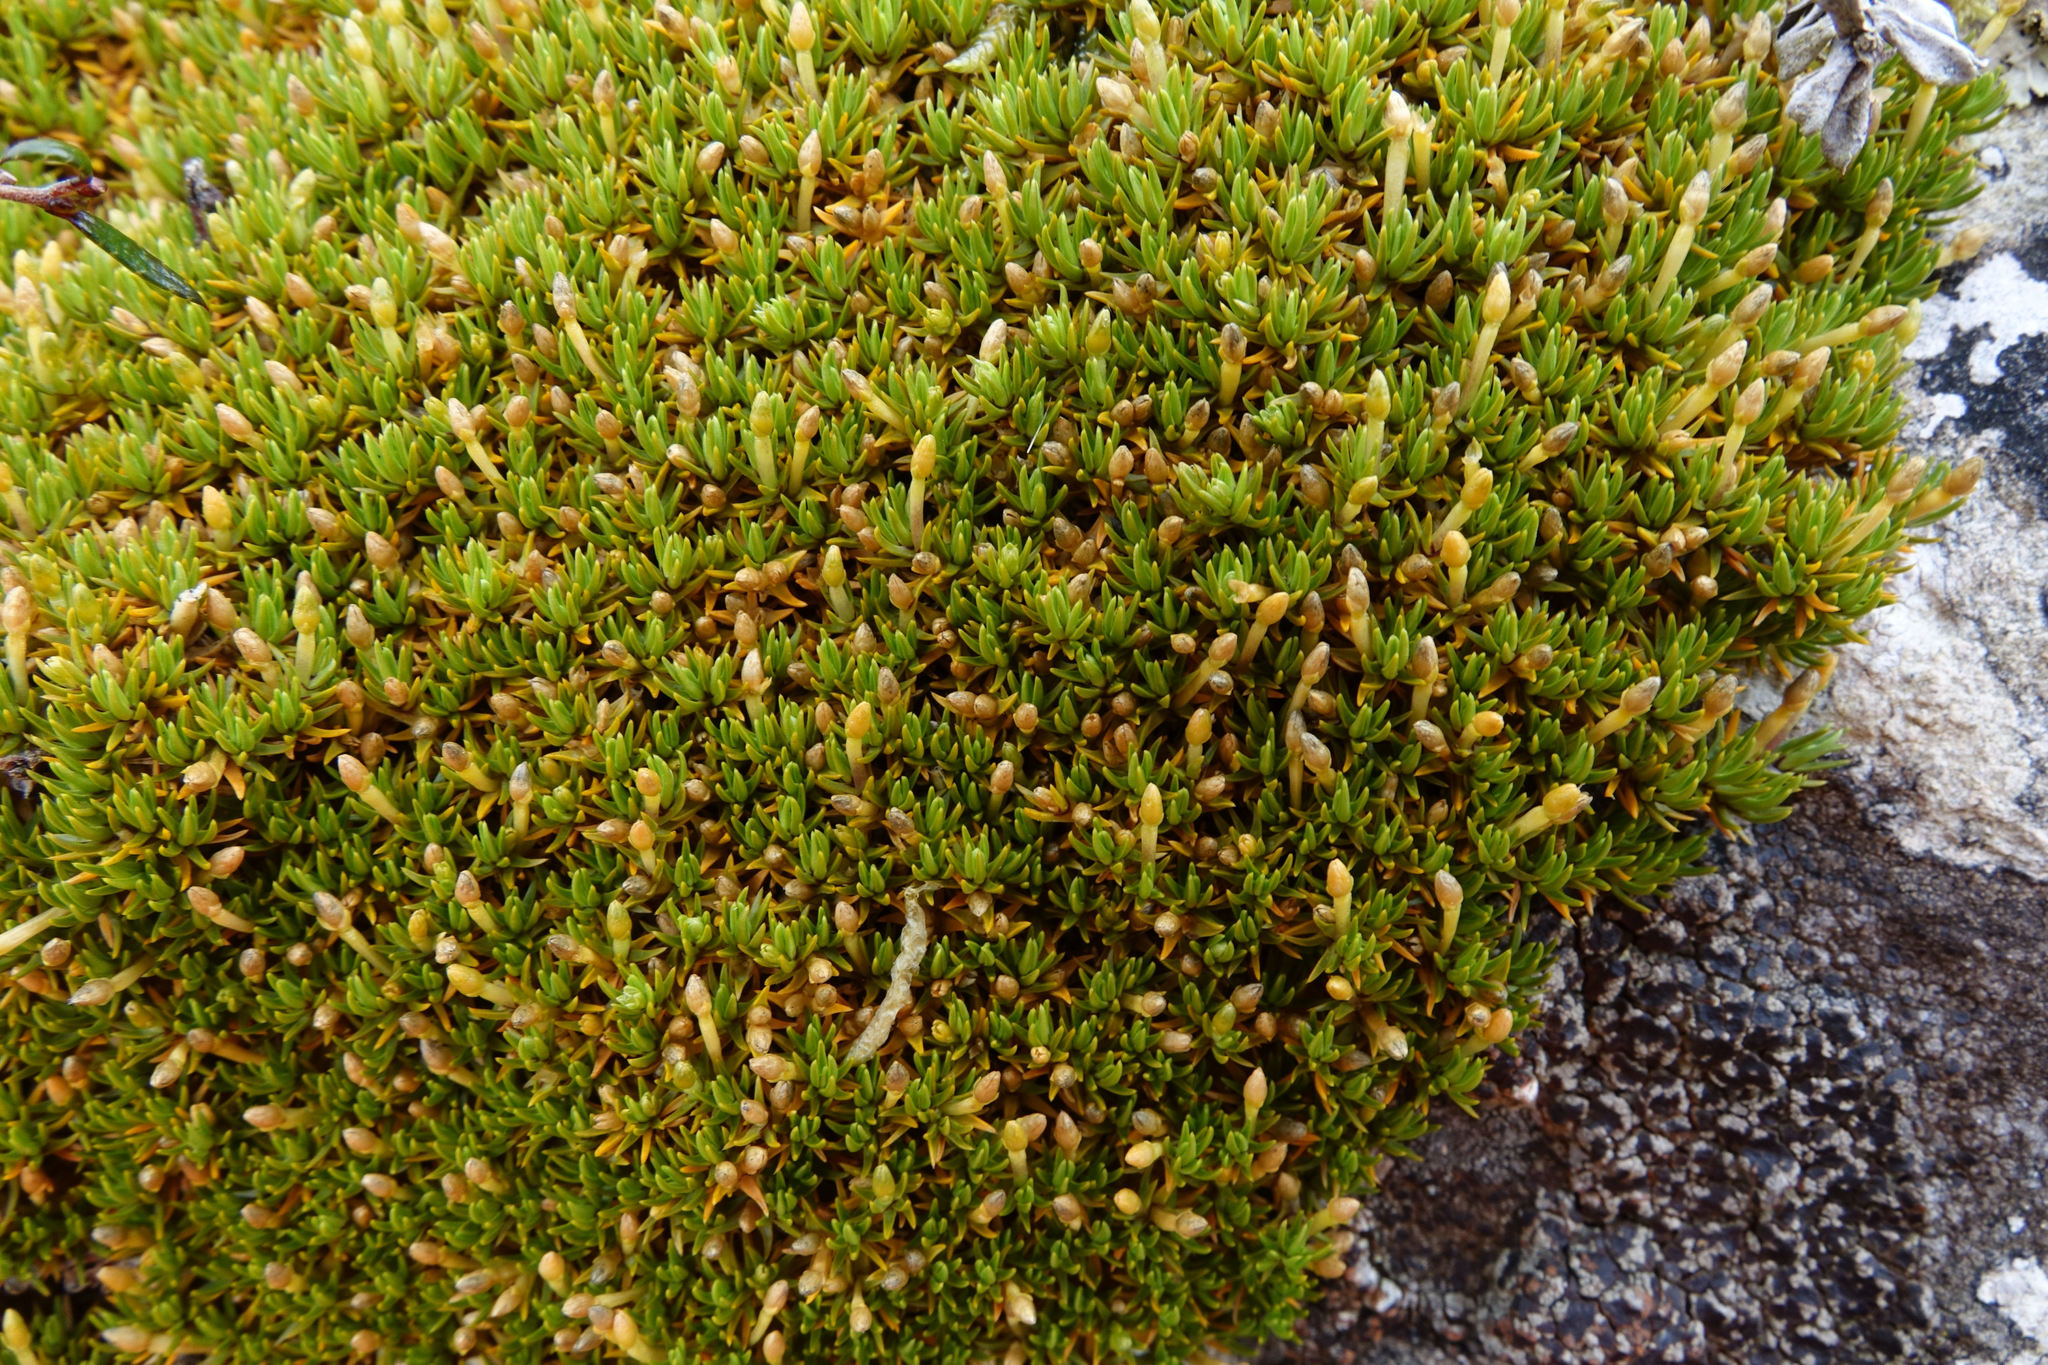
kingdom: Plantae
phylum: Tracheophyta
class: Magnoliopsida
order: Caryophyllales
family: Caryophyllaceae
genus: Scleranthus
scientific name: Scleranthus uniflorus
